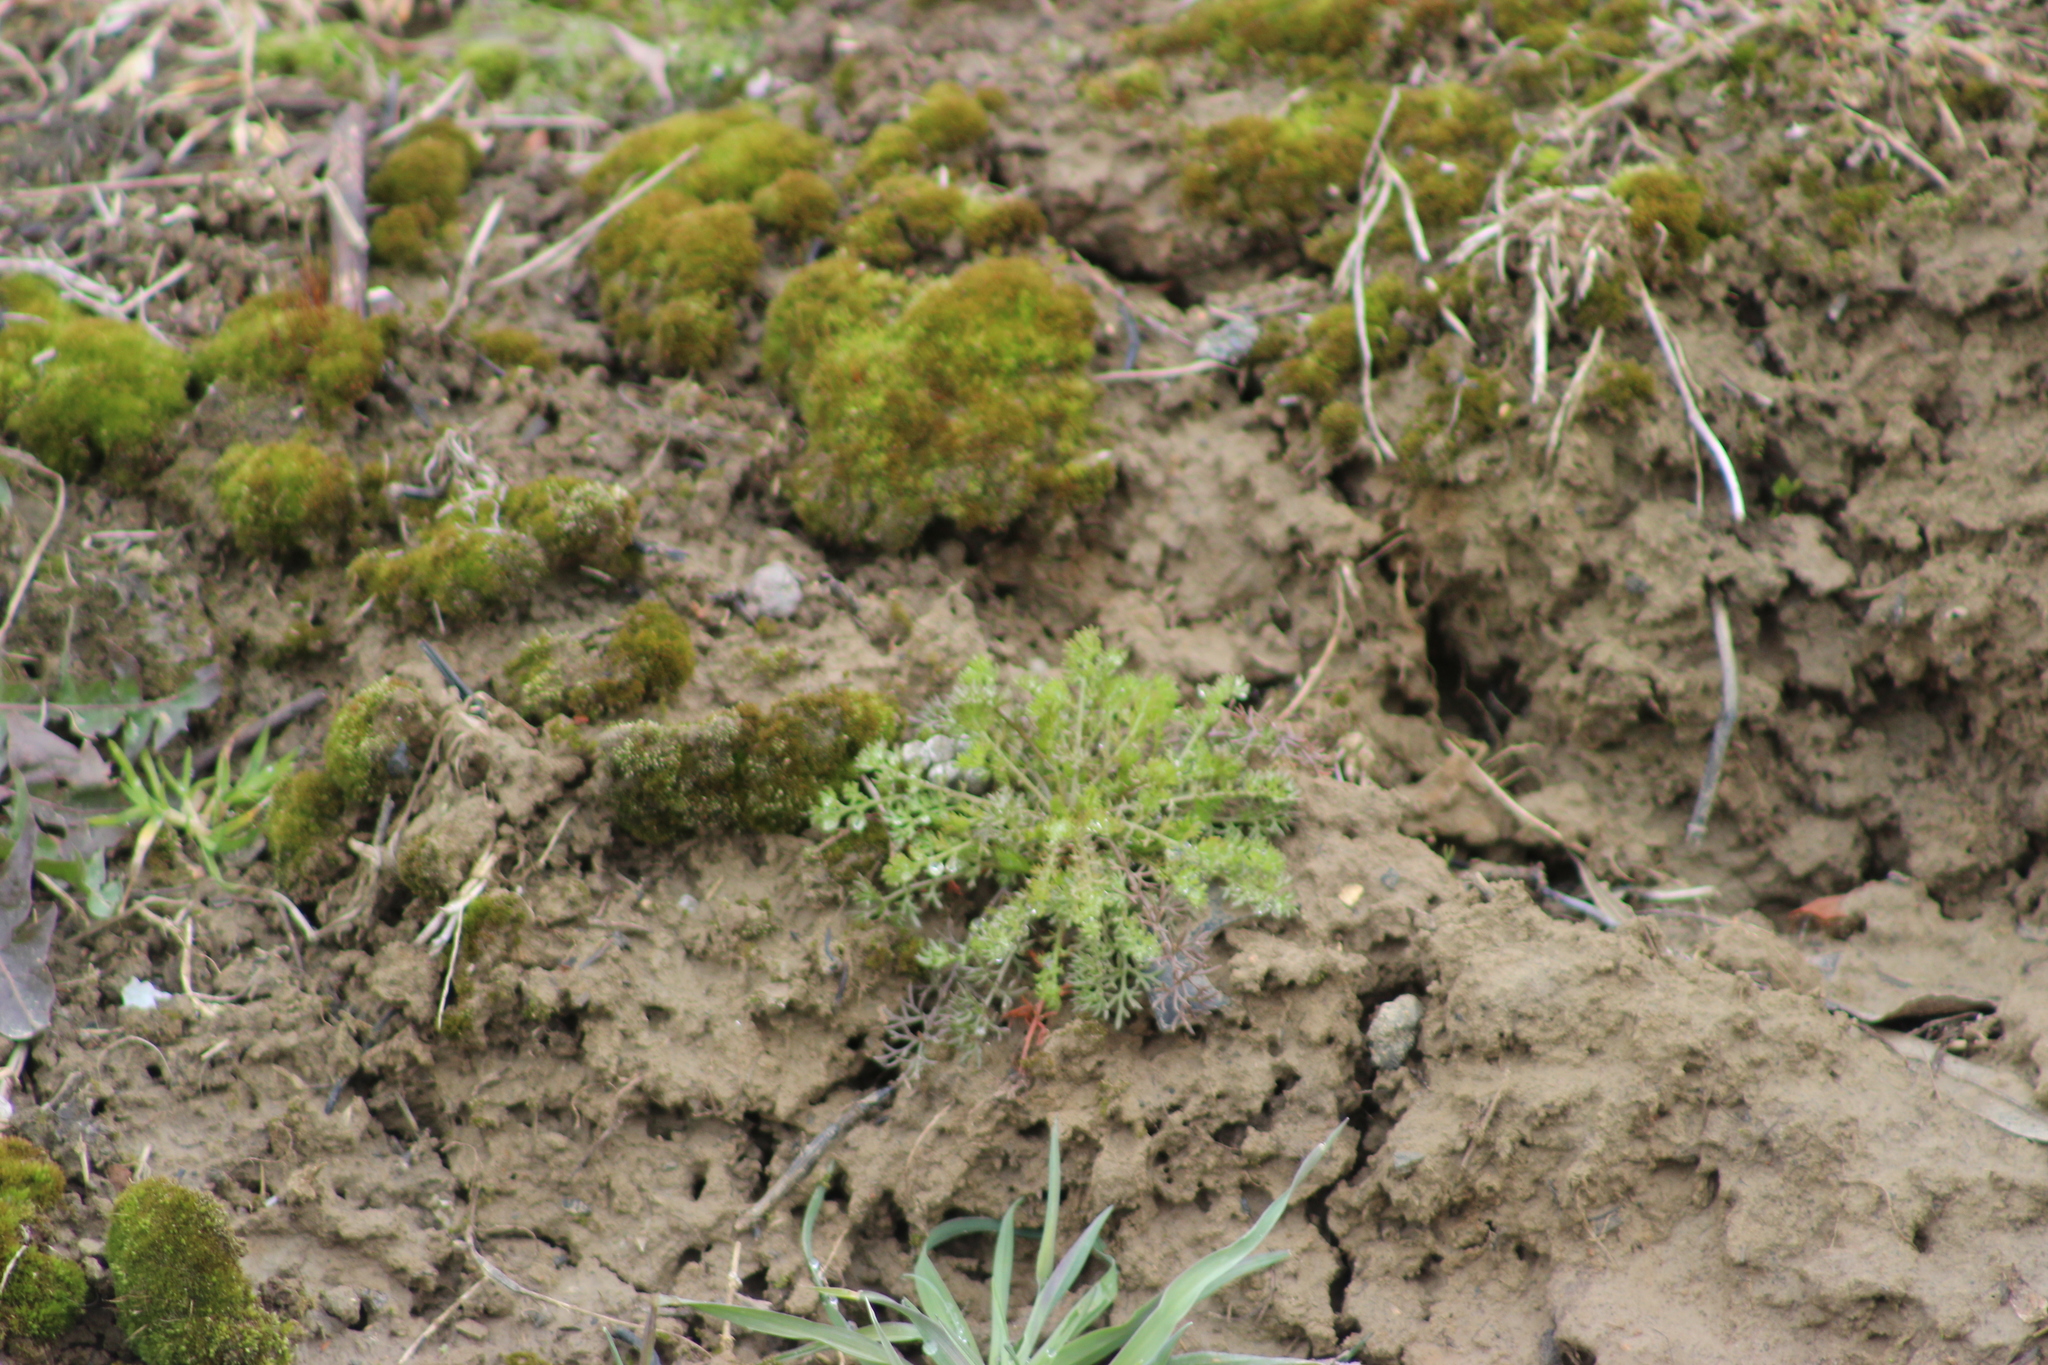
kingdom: Plantae
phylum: Tracheophyta
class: Magnoliopsida
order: Asterales
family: Asteraceae
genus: Tripleurospermum
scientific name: Tripleurospermum inodorum
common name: Scentless mayweed
